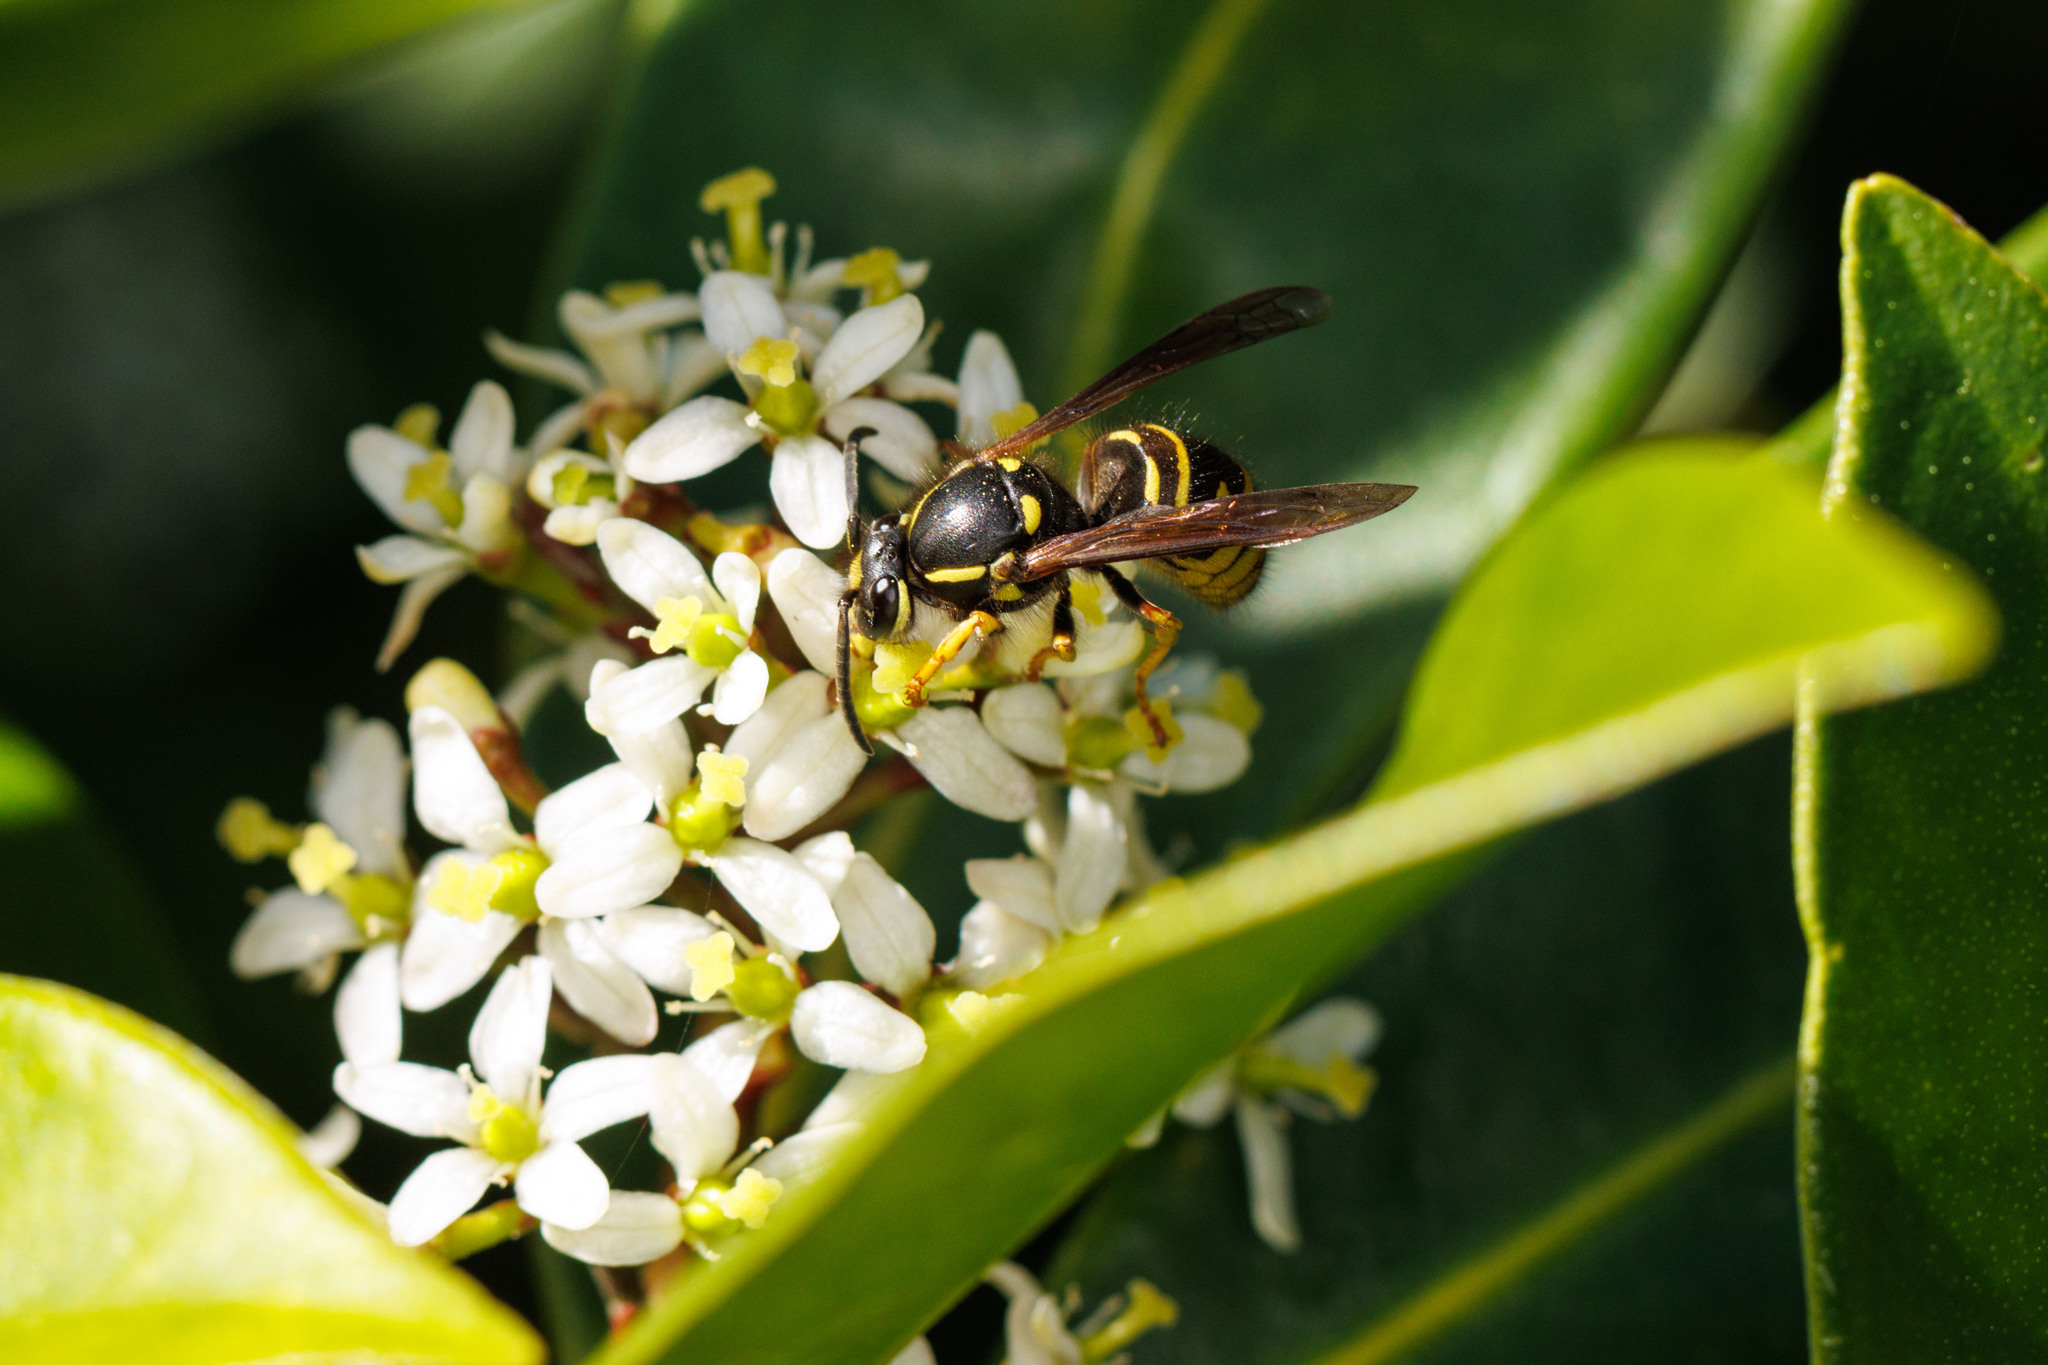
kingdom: Animalia
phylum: Arthropoda
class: Insecta
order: Hymenoptera
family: Vespidae
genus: Vespula
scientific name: Vespula acadica
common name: Forest yellowjacket
